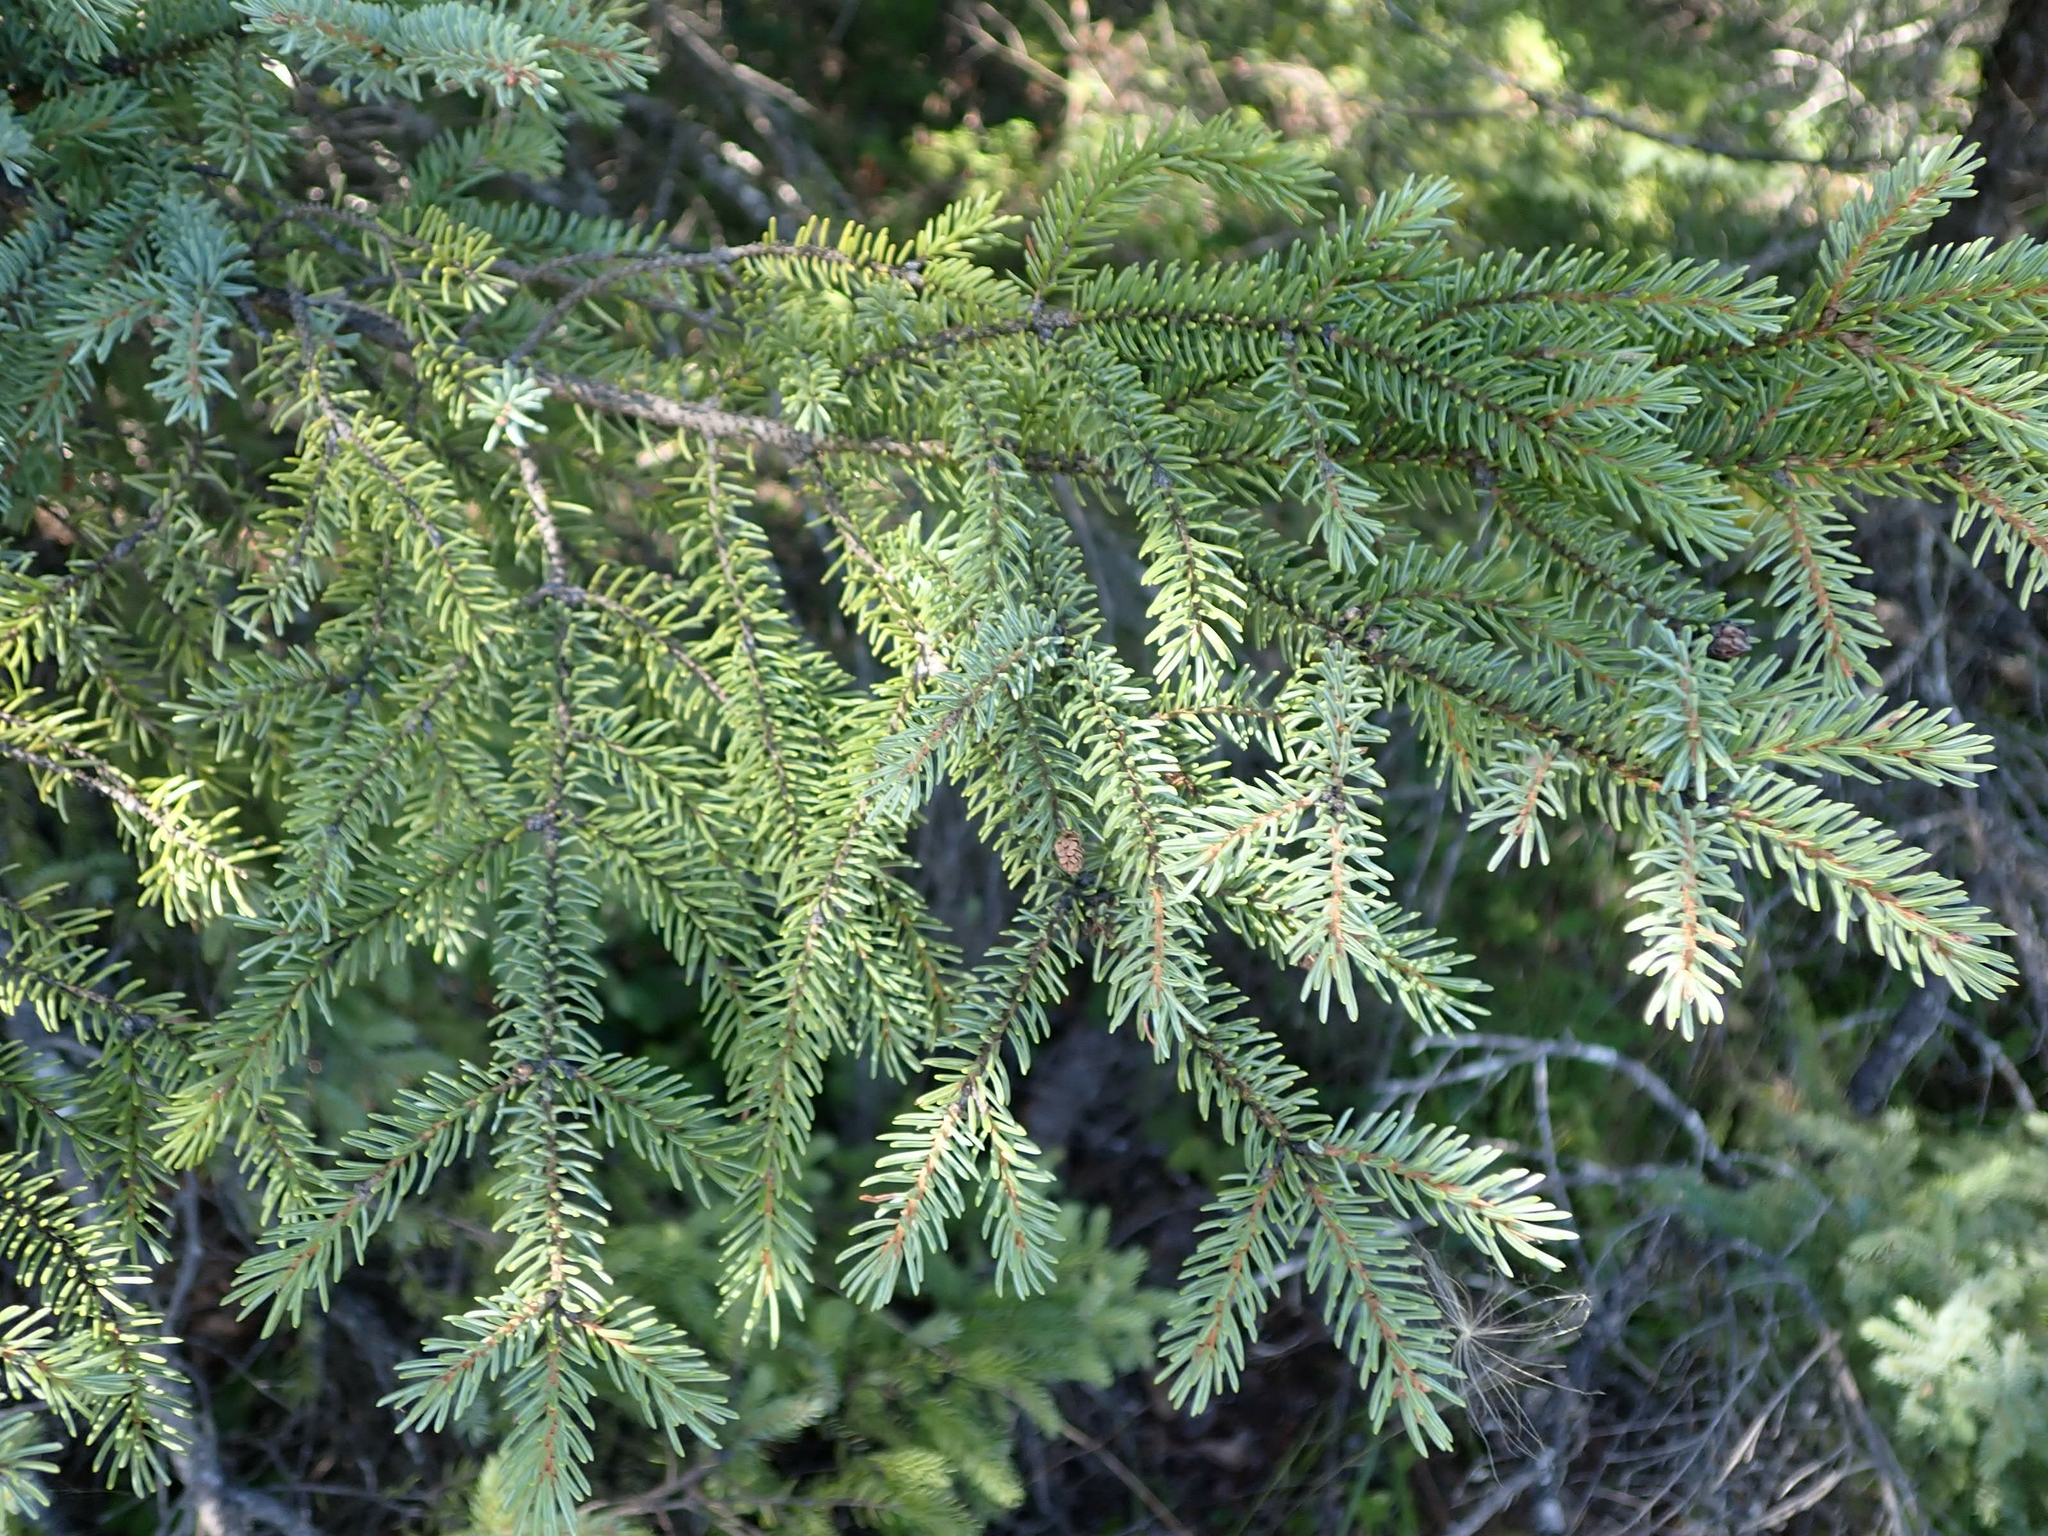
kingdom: Plantae
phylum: Tracheophyta
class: Pinopsida
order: Pinales
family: Pinaceae
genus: Picea
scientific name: Picea mariana
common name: Black spruce
